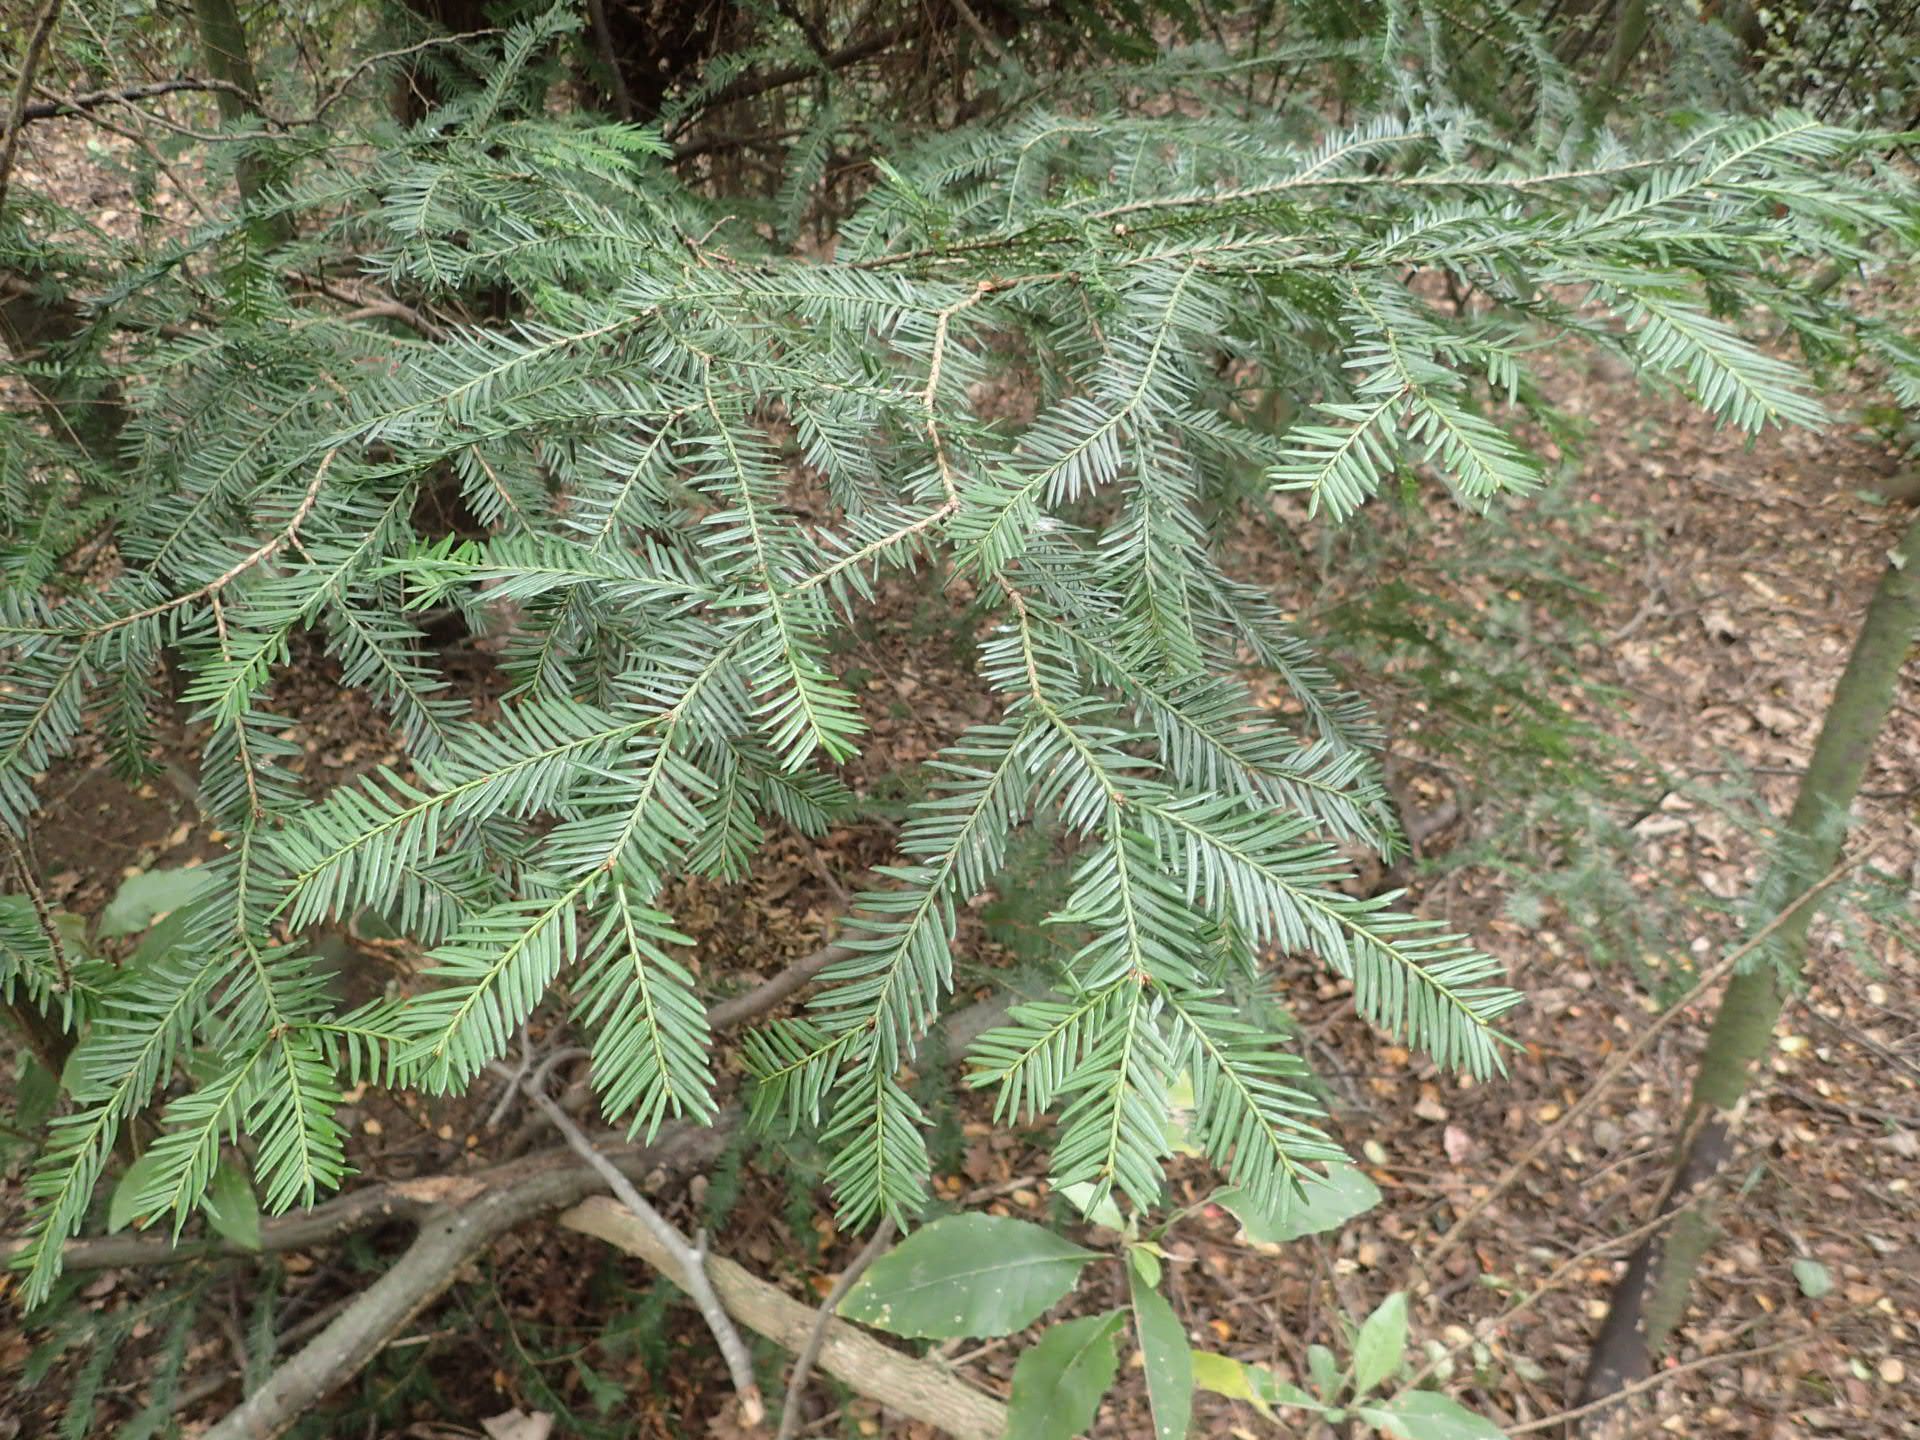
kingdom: Plantae
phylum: Tracheophyta
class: Pinopsida
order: Pinales
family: Taxaceae
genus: Taxus
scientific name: Taxus baccata
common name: Yew
